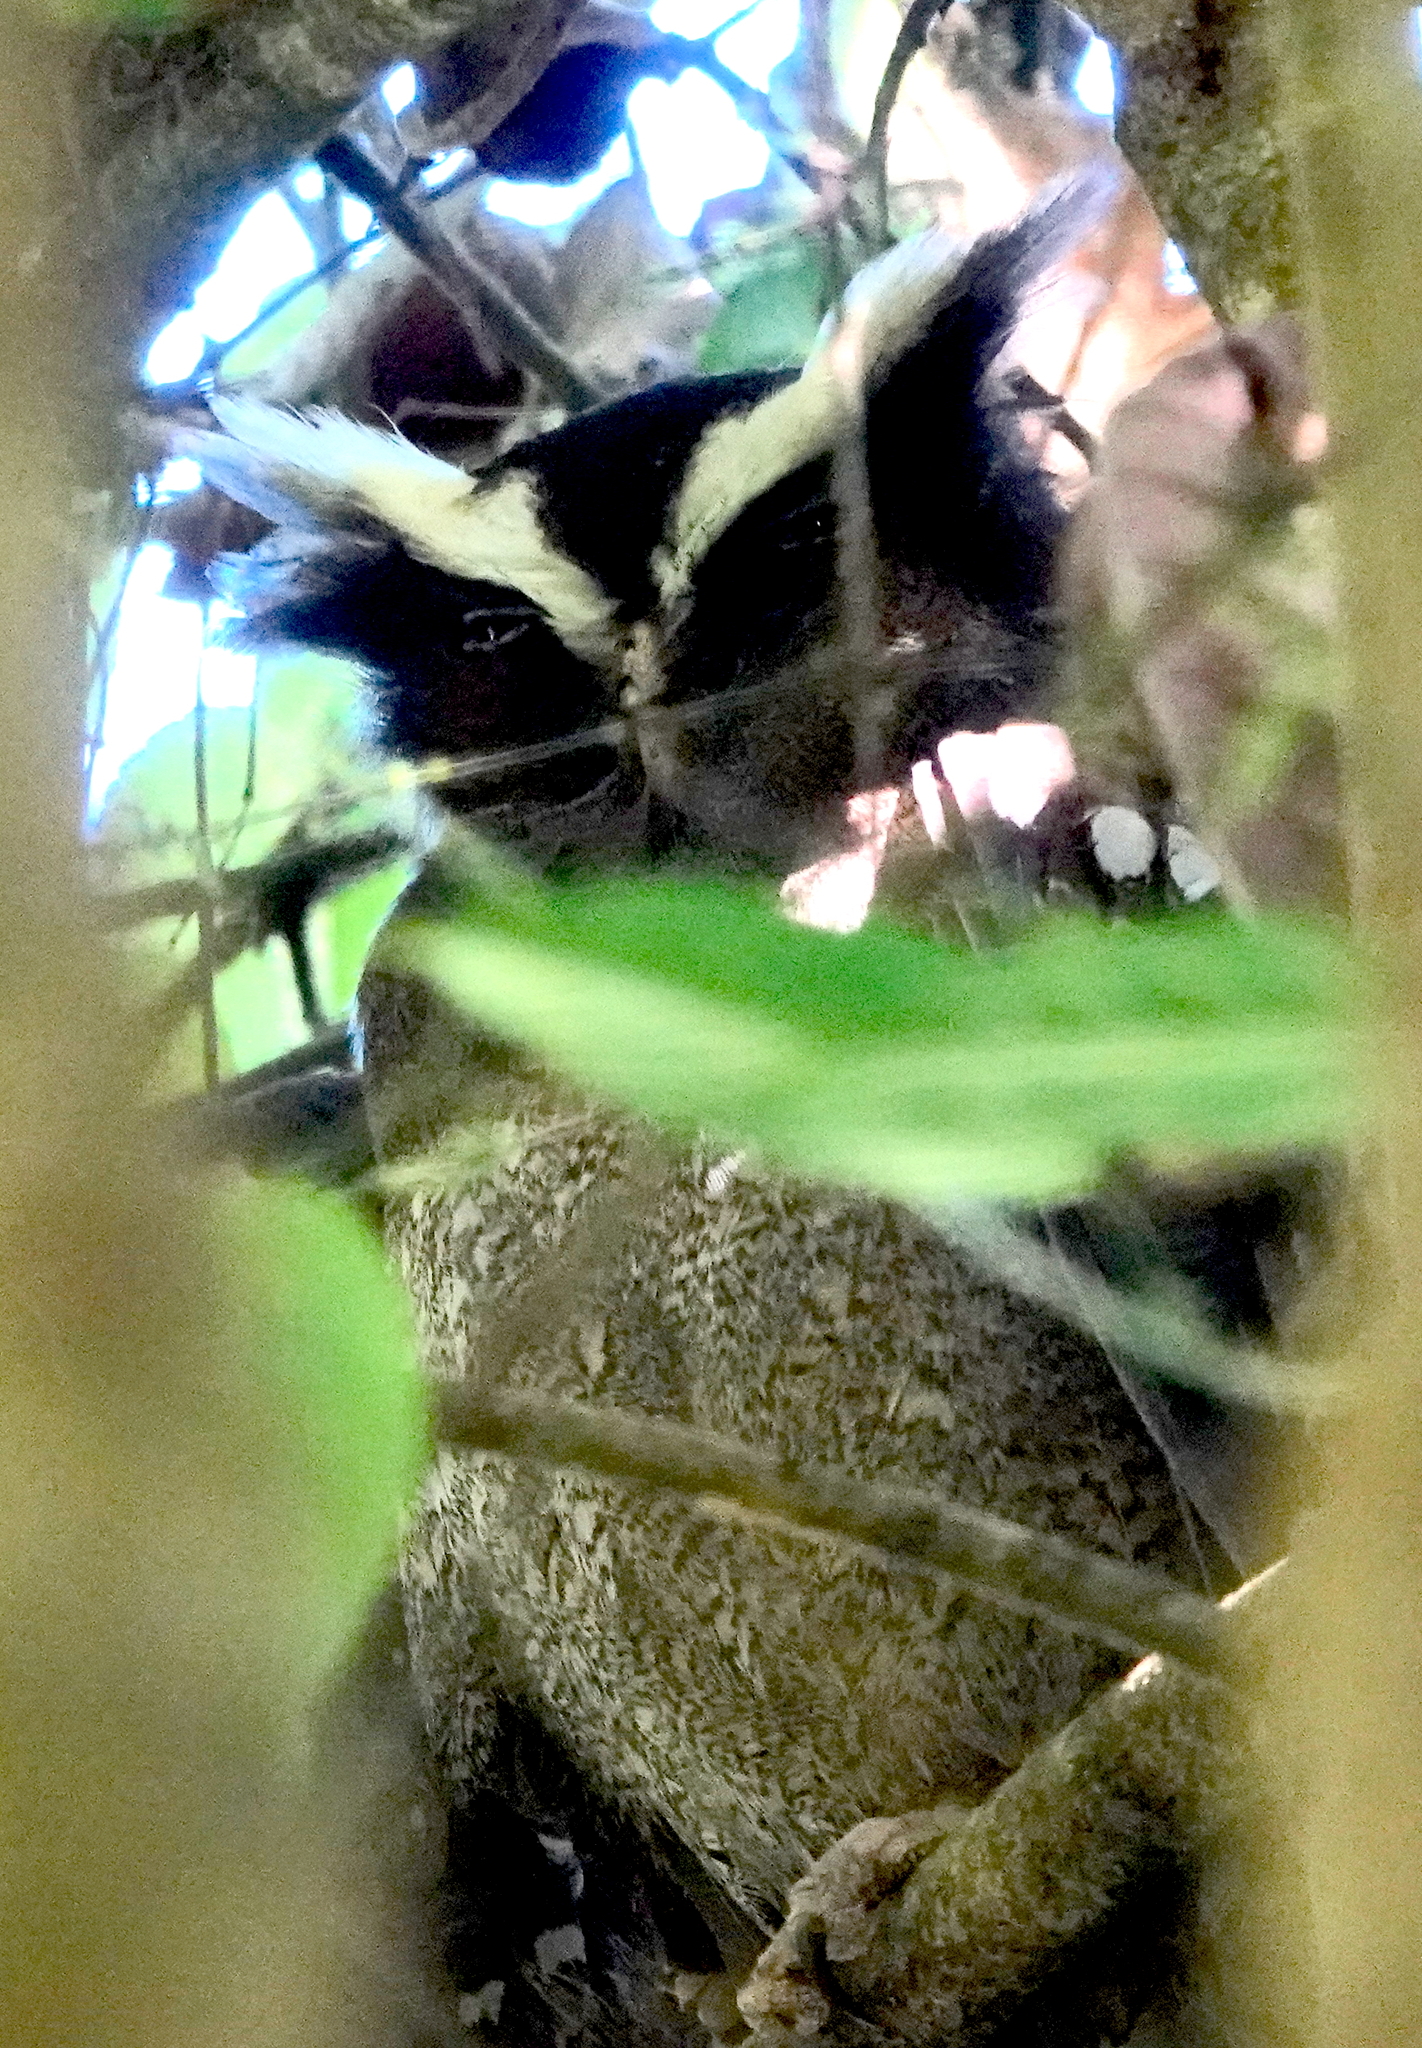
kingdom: Animalia
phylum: Chordata
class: Aves
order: Strigiformes
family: Strigidae
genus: Lophostrix
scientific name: Lophostrix cristata
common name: Crested owl
